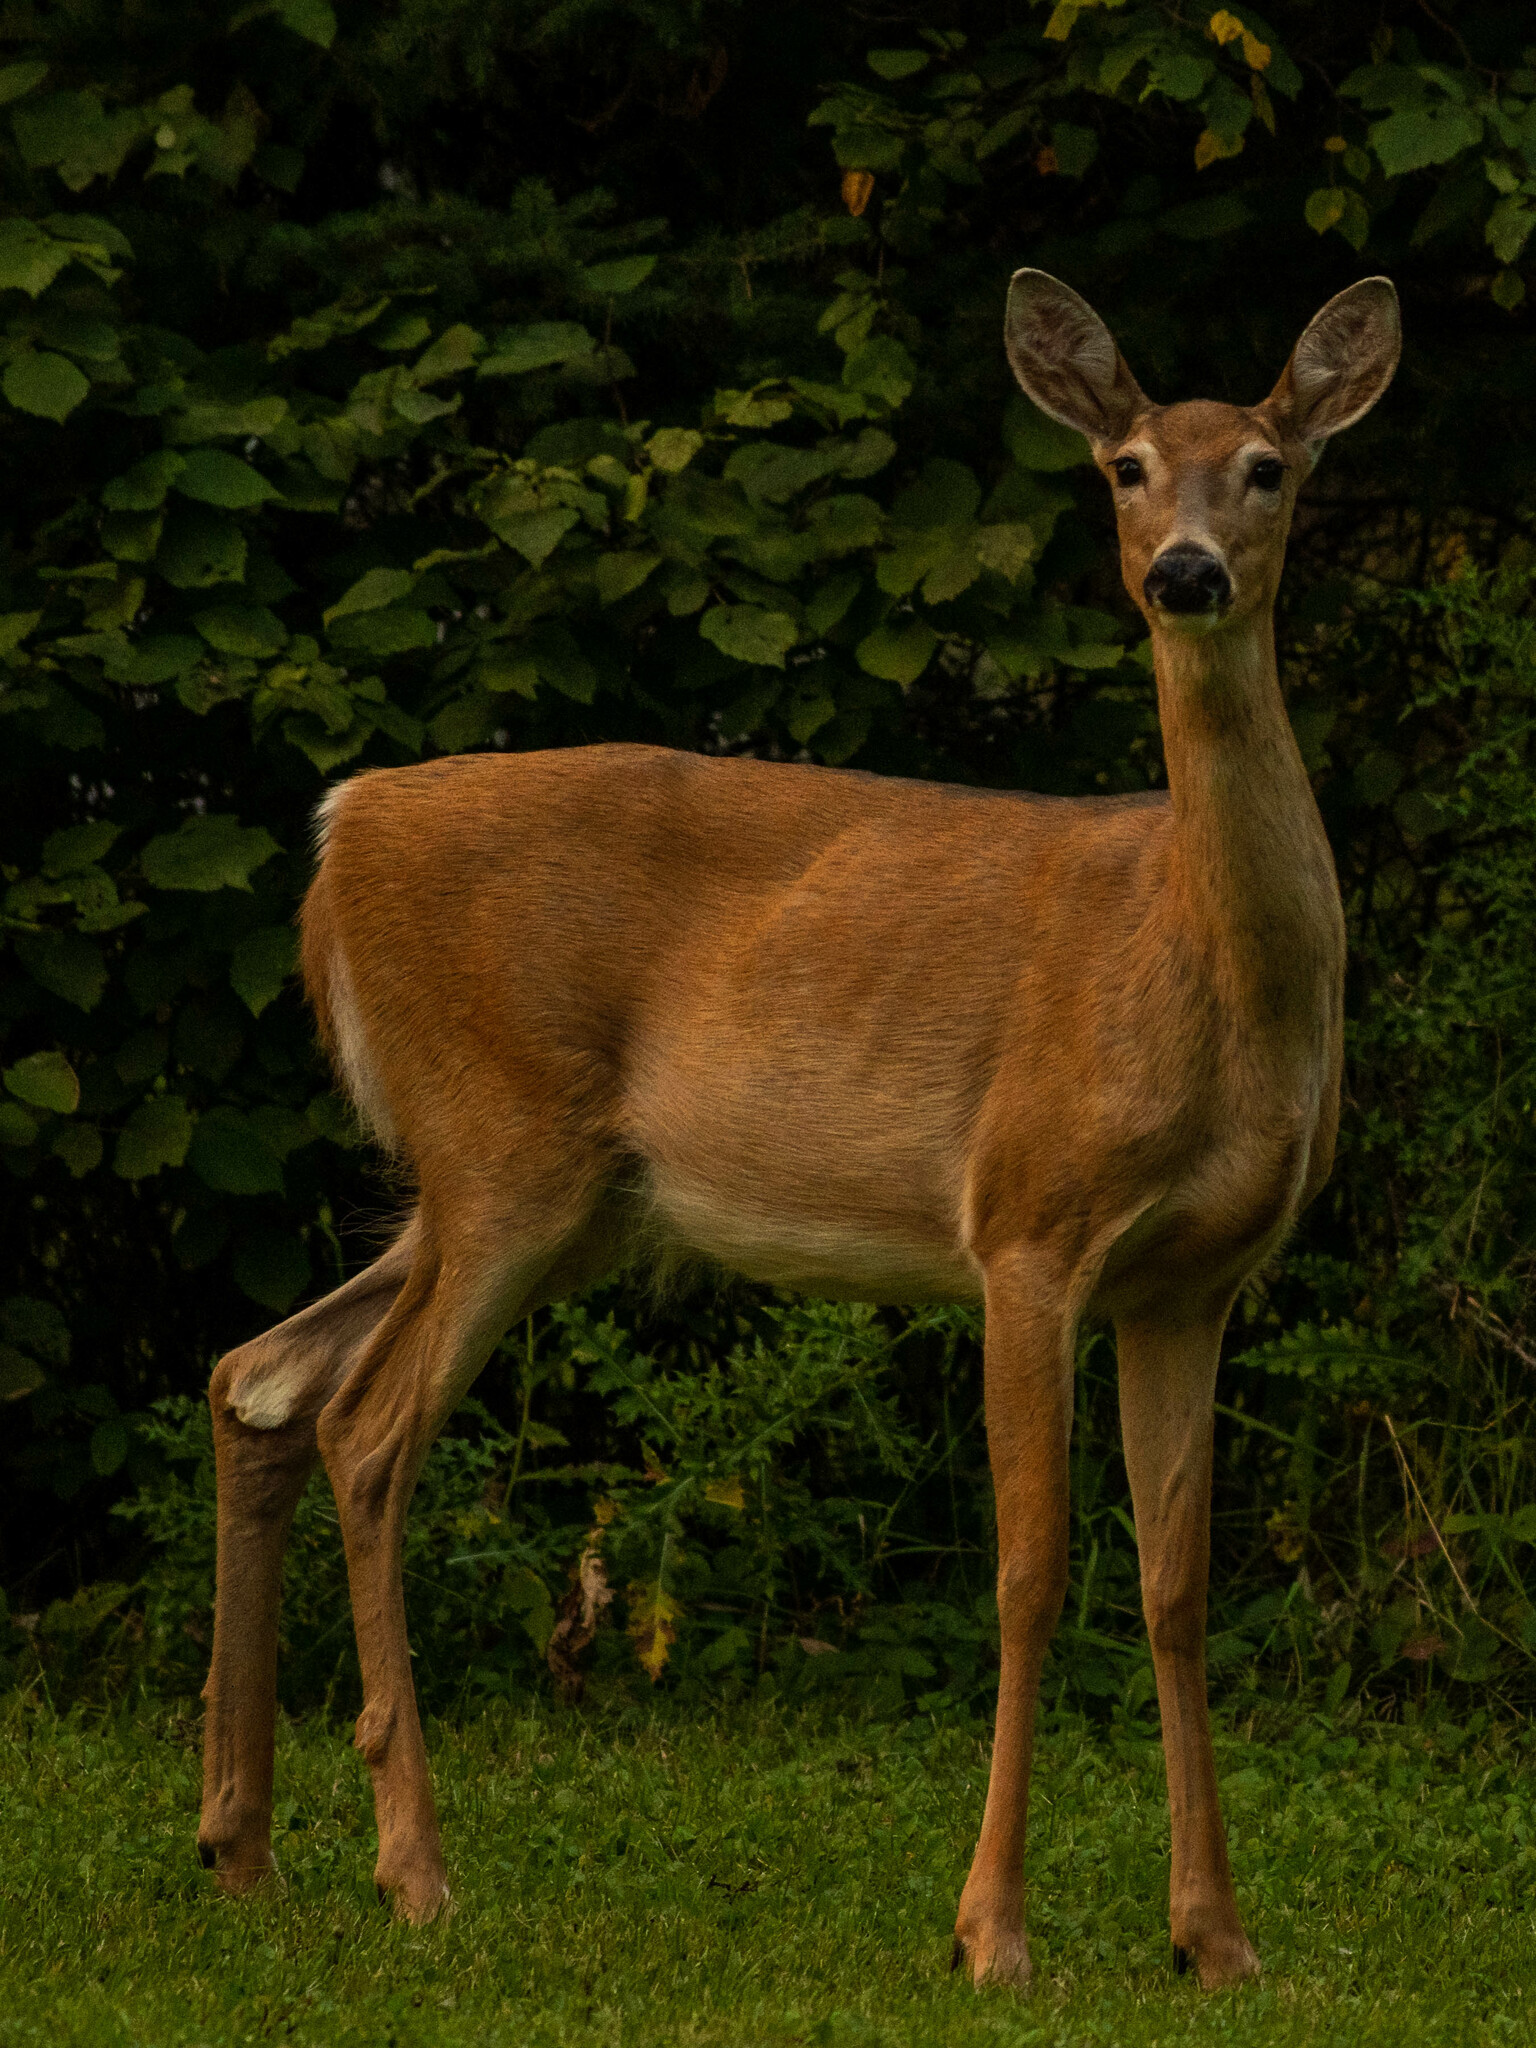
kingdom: Animalia
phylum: Chordata
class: Mammalia
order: Artiodactyla
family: Cervidae
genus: Odocoileus
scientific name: Odocoileus virginianus
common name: White-tailed deer
